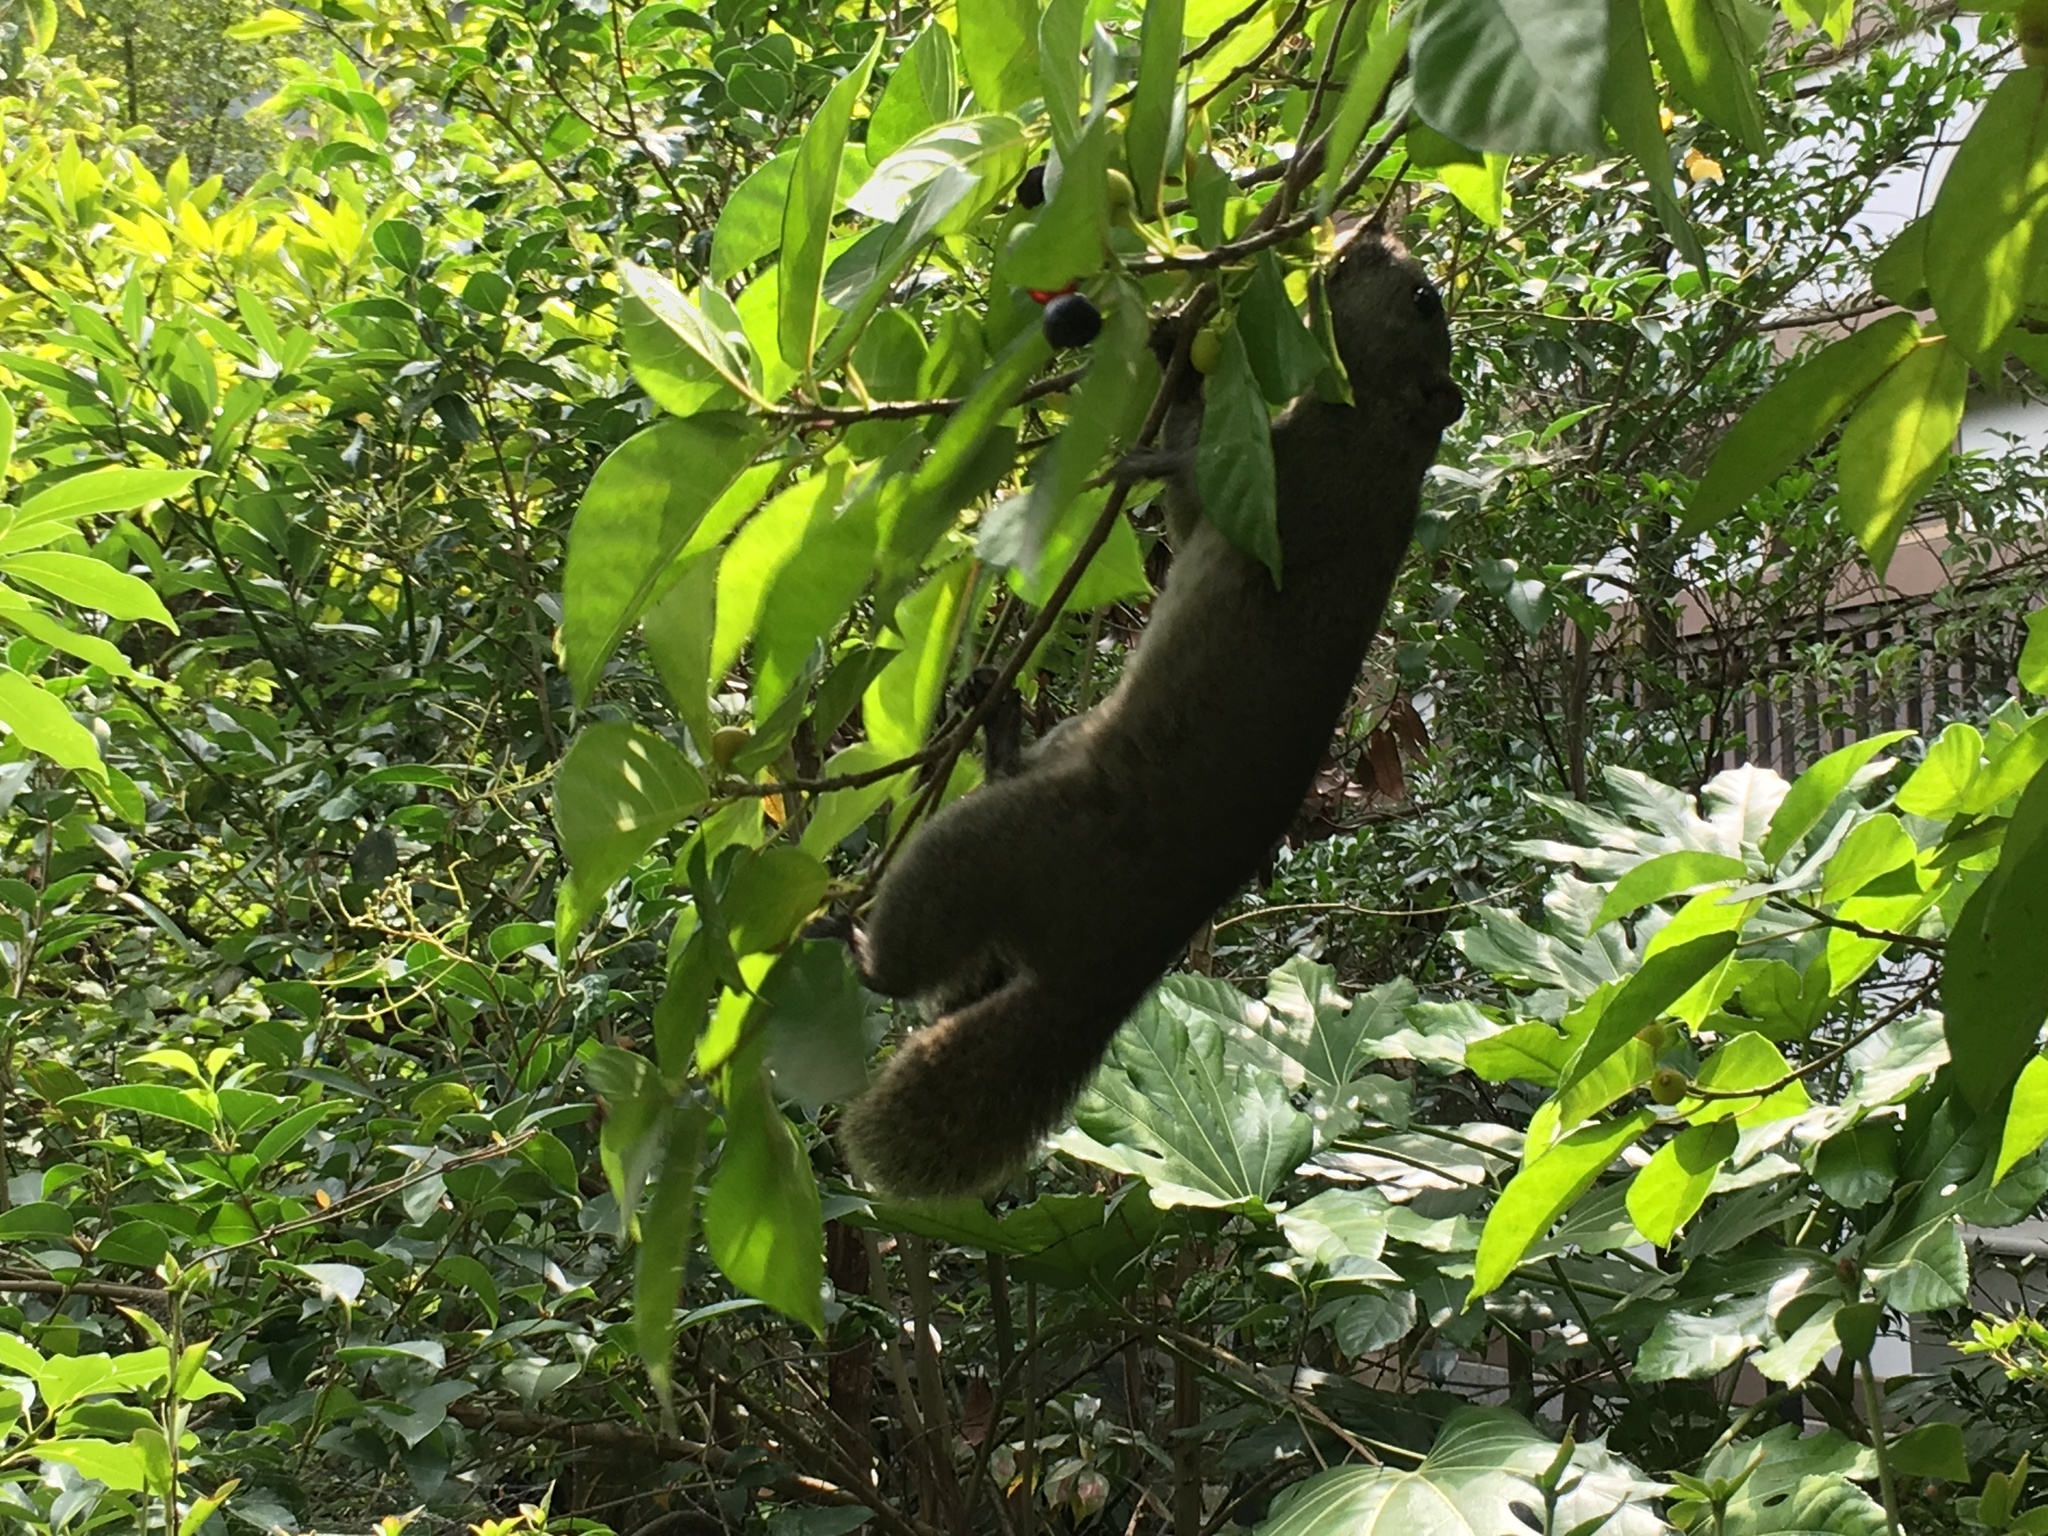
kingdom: Animalia
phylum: Chordata
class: Mammalia
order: Rodentia
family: Sciuridae
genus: Callosciurus
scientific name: Callosciurus erythraeus
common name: Pallas's squirrel
